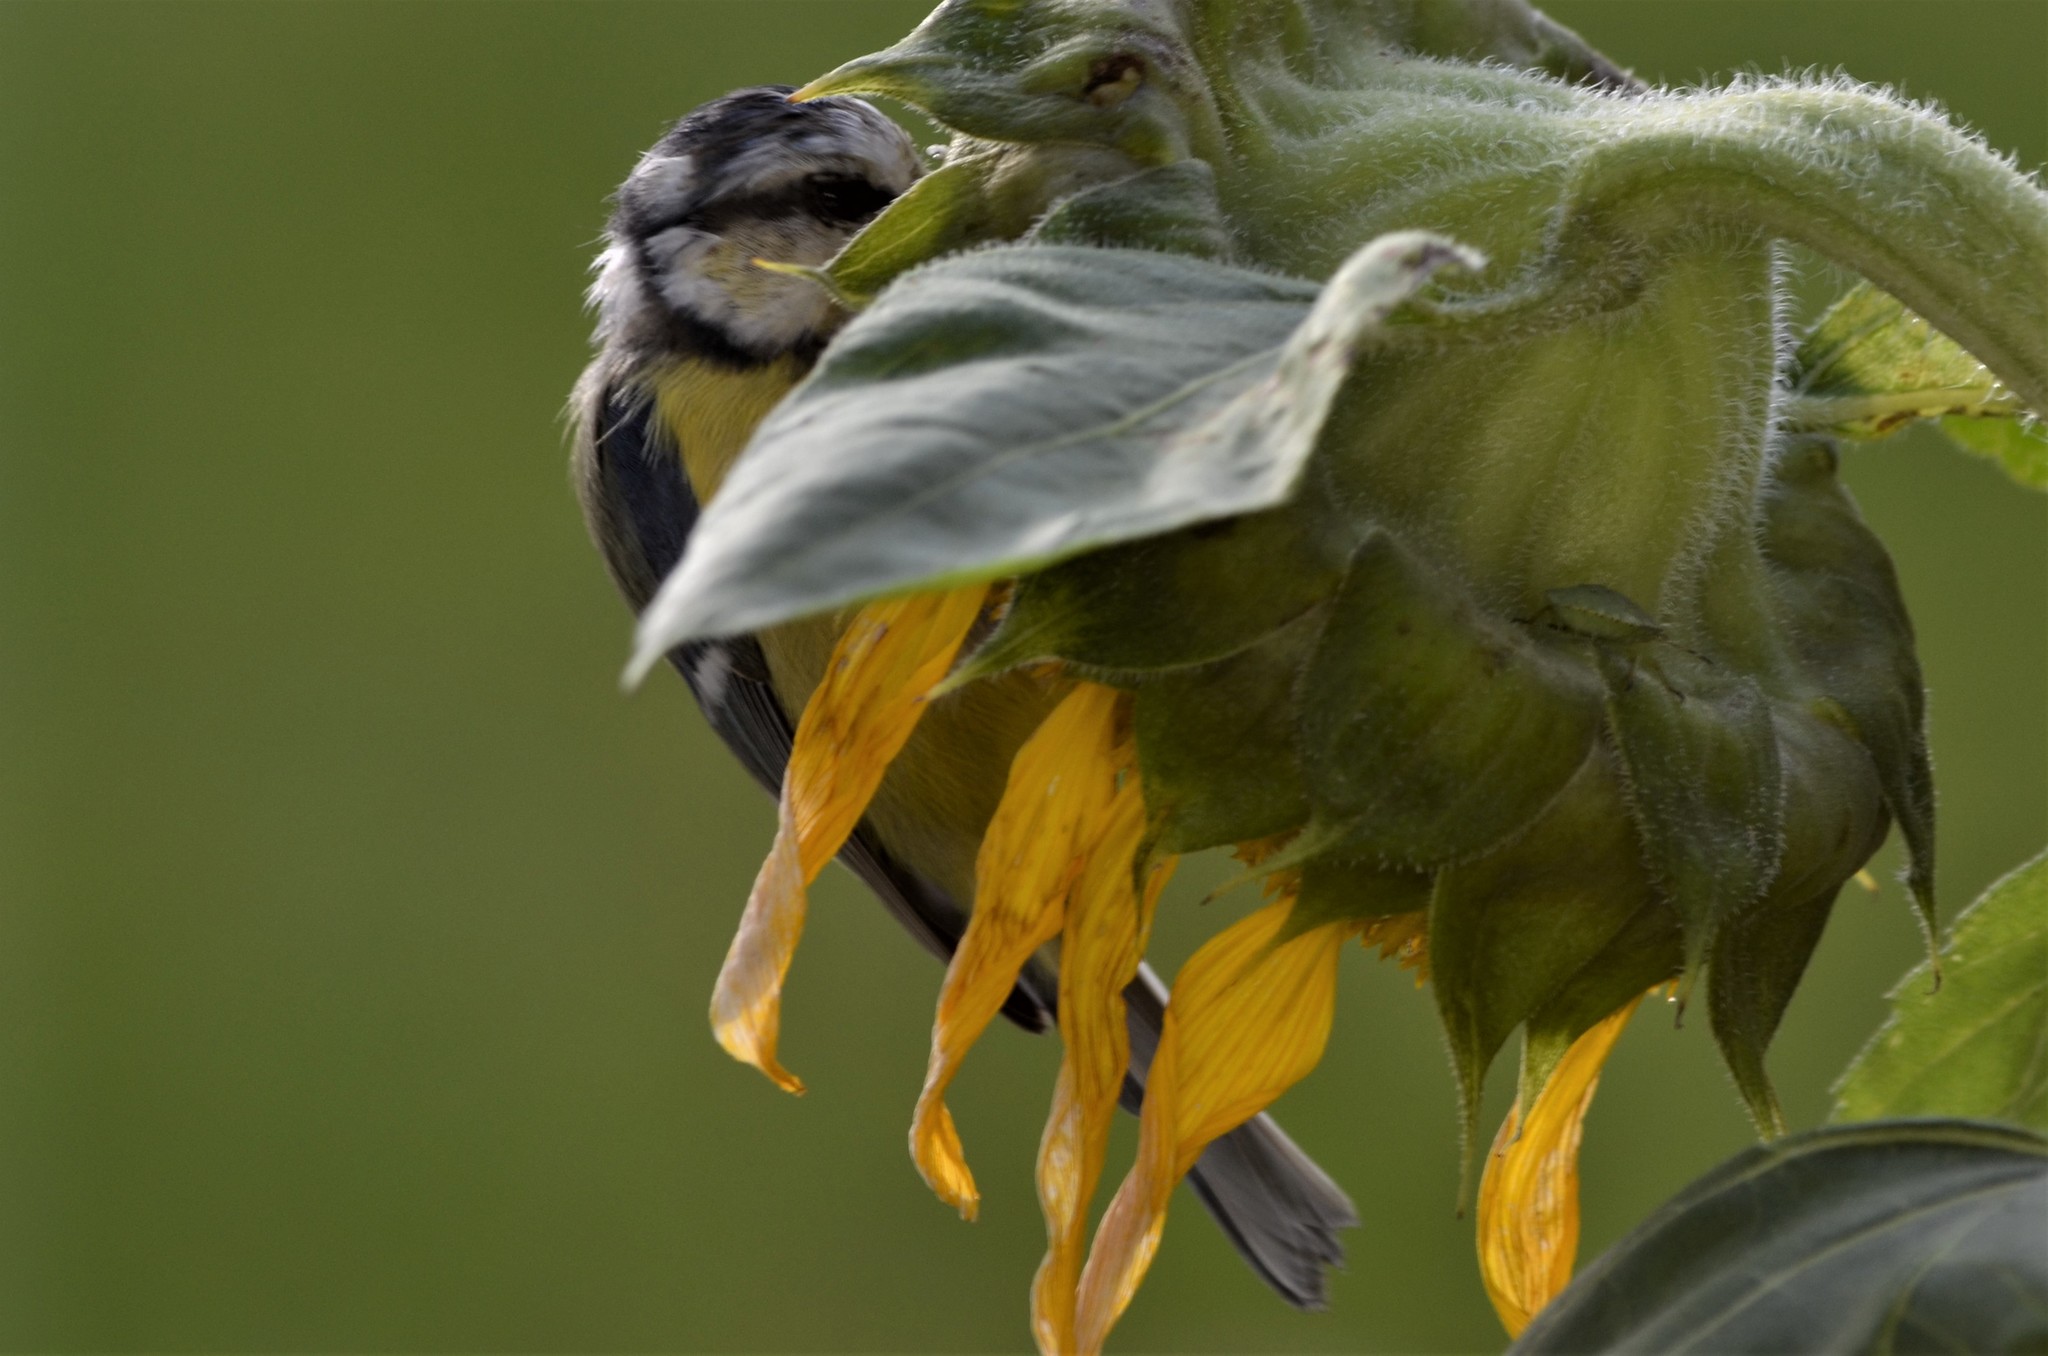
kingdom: Animalia
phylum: Chordata
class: Aves
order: Passeriformes
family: Paridae
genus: Cyanistes
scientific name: Cyanistes caeruleus
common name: Eurasian blue tit
